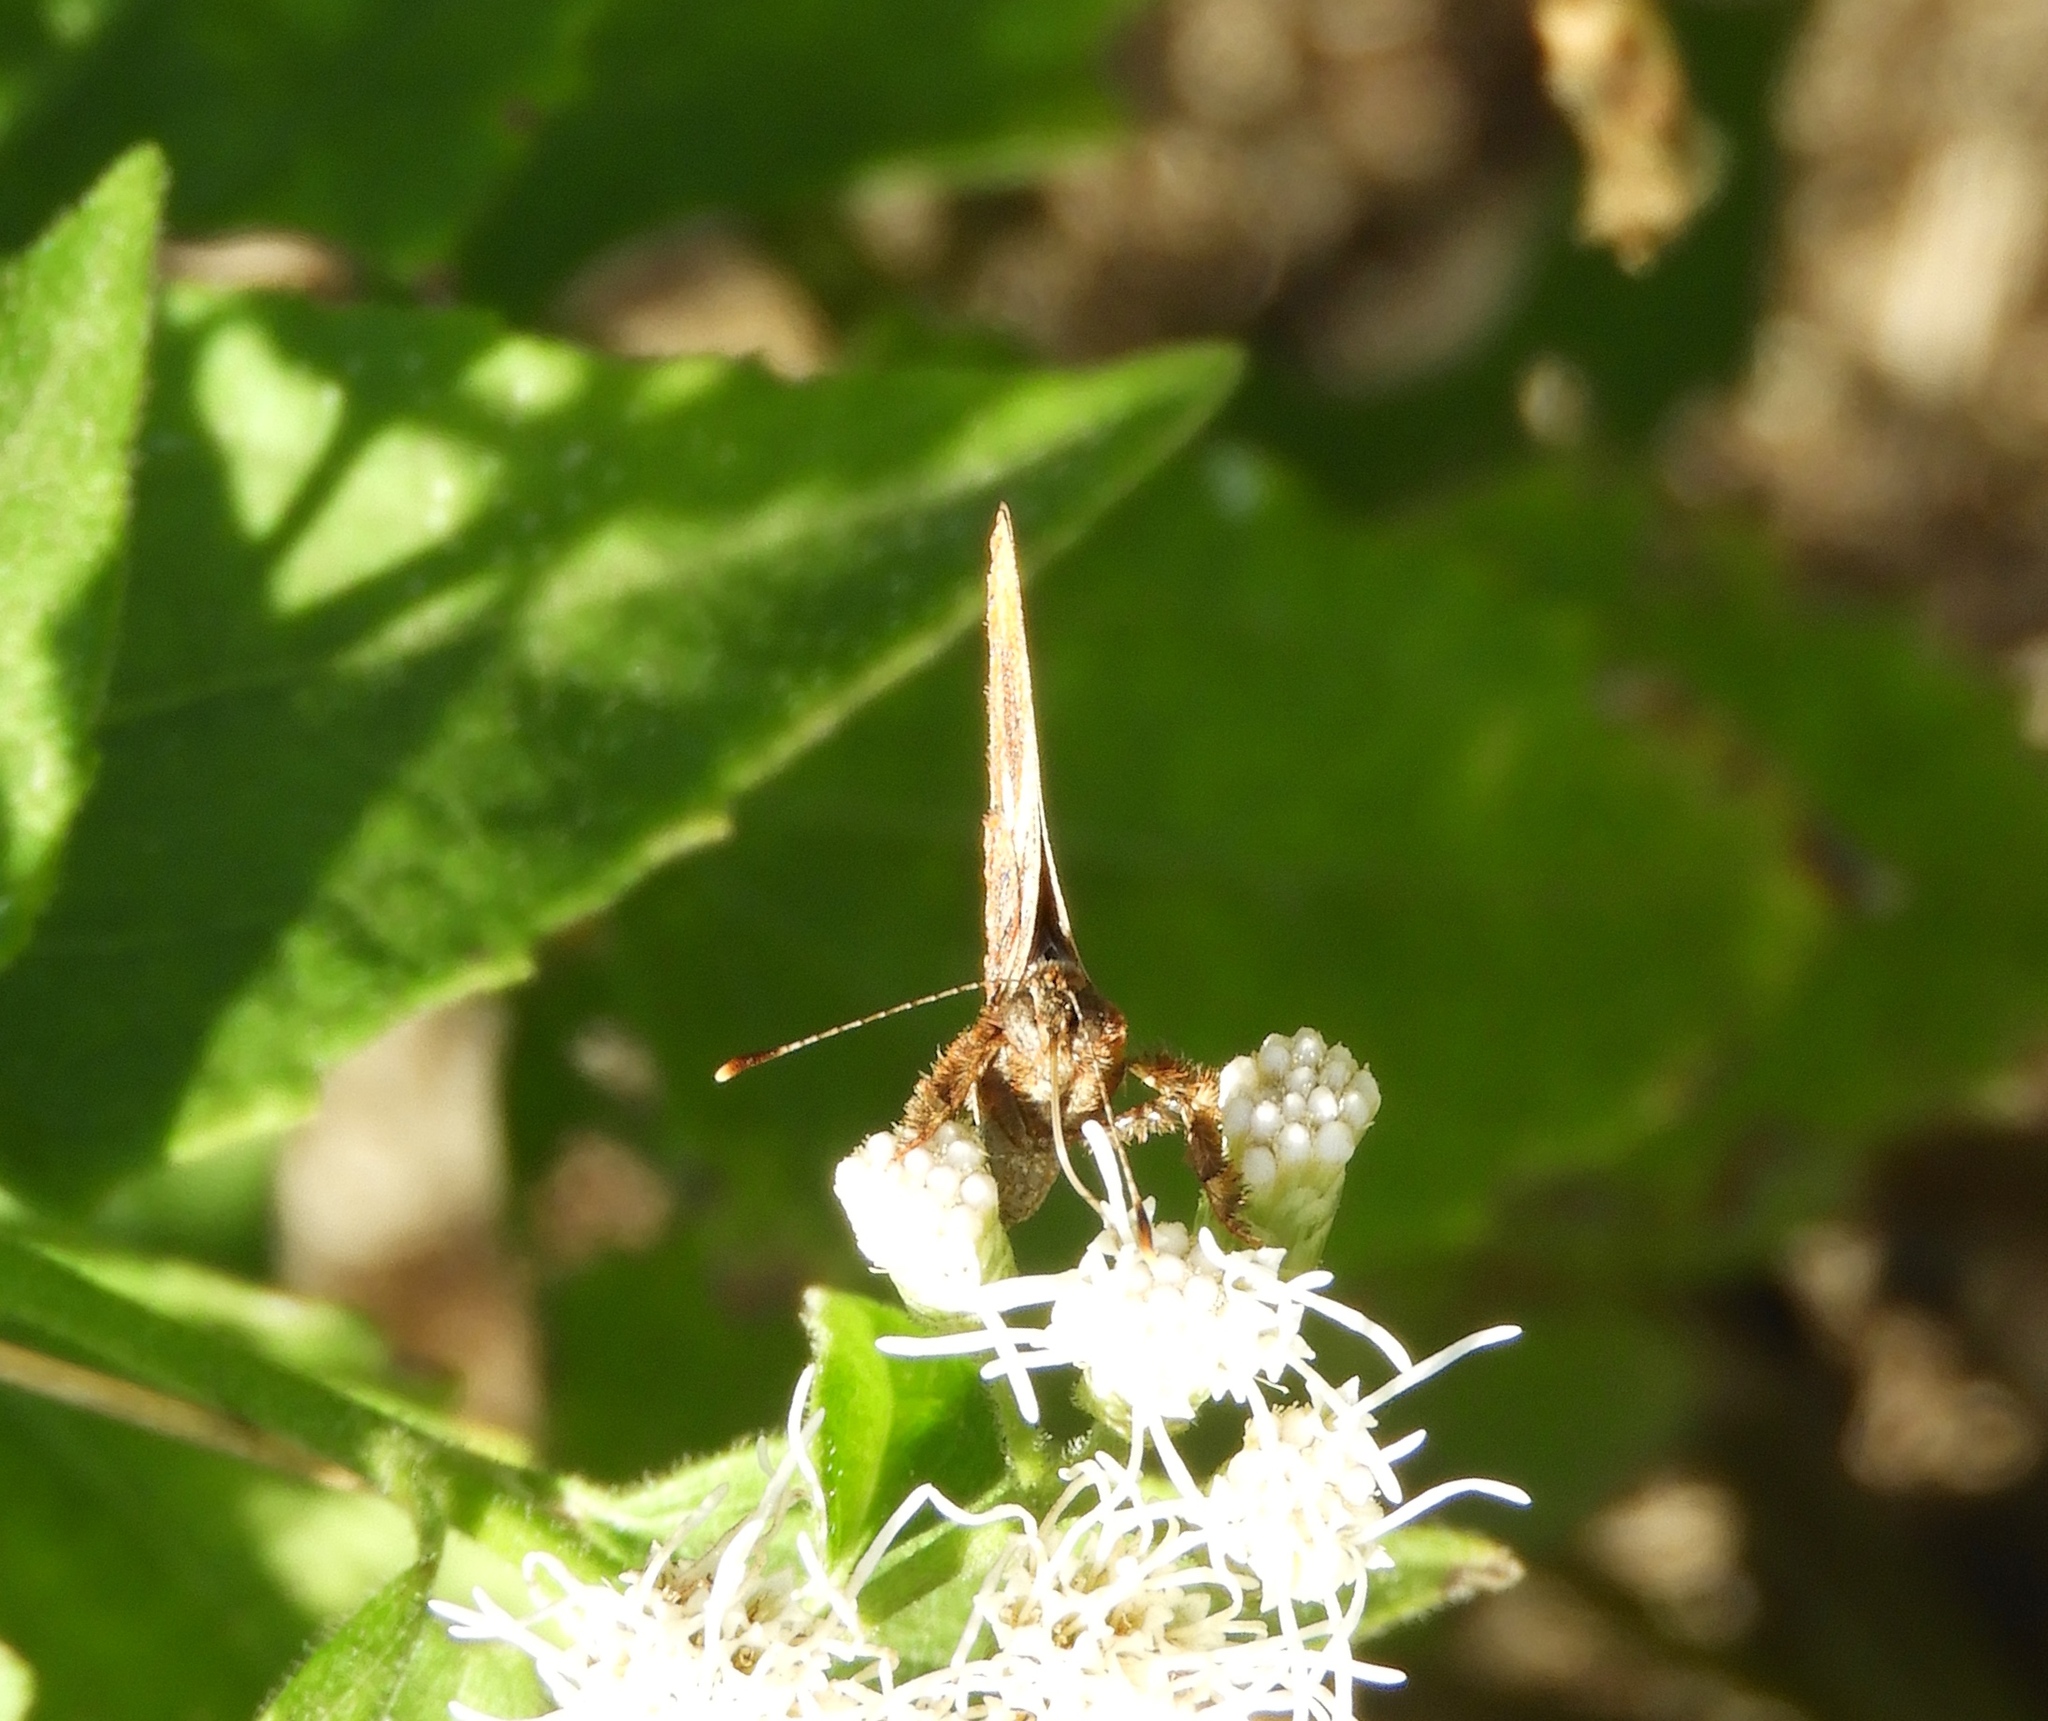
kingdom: Animalia
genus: Anteros
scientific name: Anteros carausius
